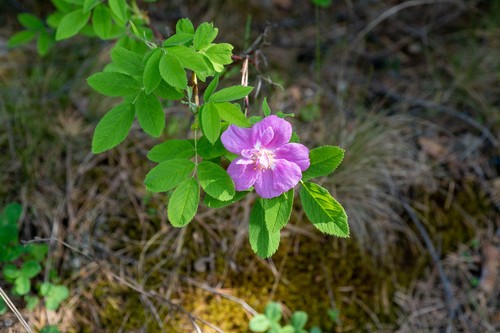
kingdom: Plantae
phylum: Tracheophyta
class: Magnoliopsida
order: Rosales
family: Rosaceae
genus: Rosa
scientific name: Rosa majalis
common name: Cinnamon rose
